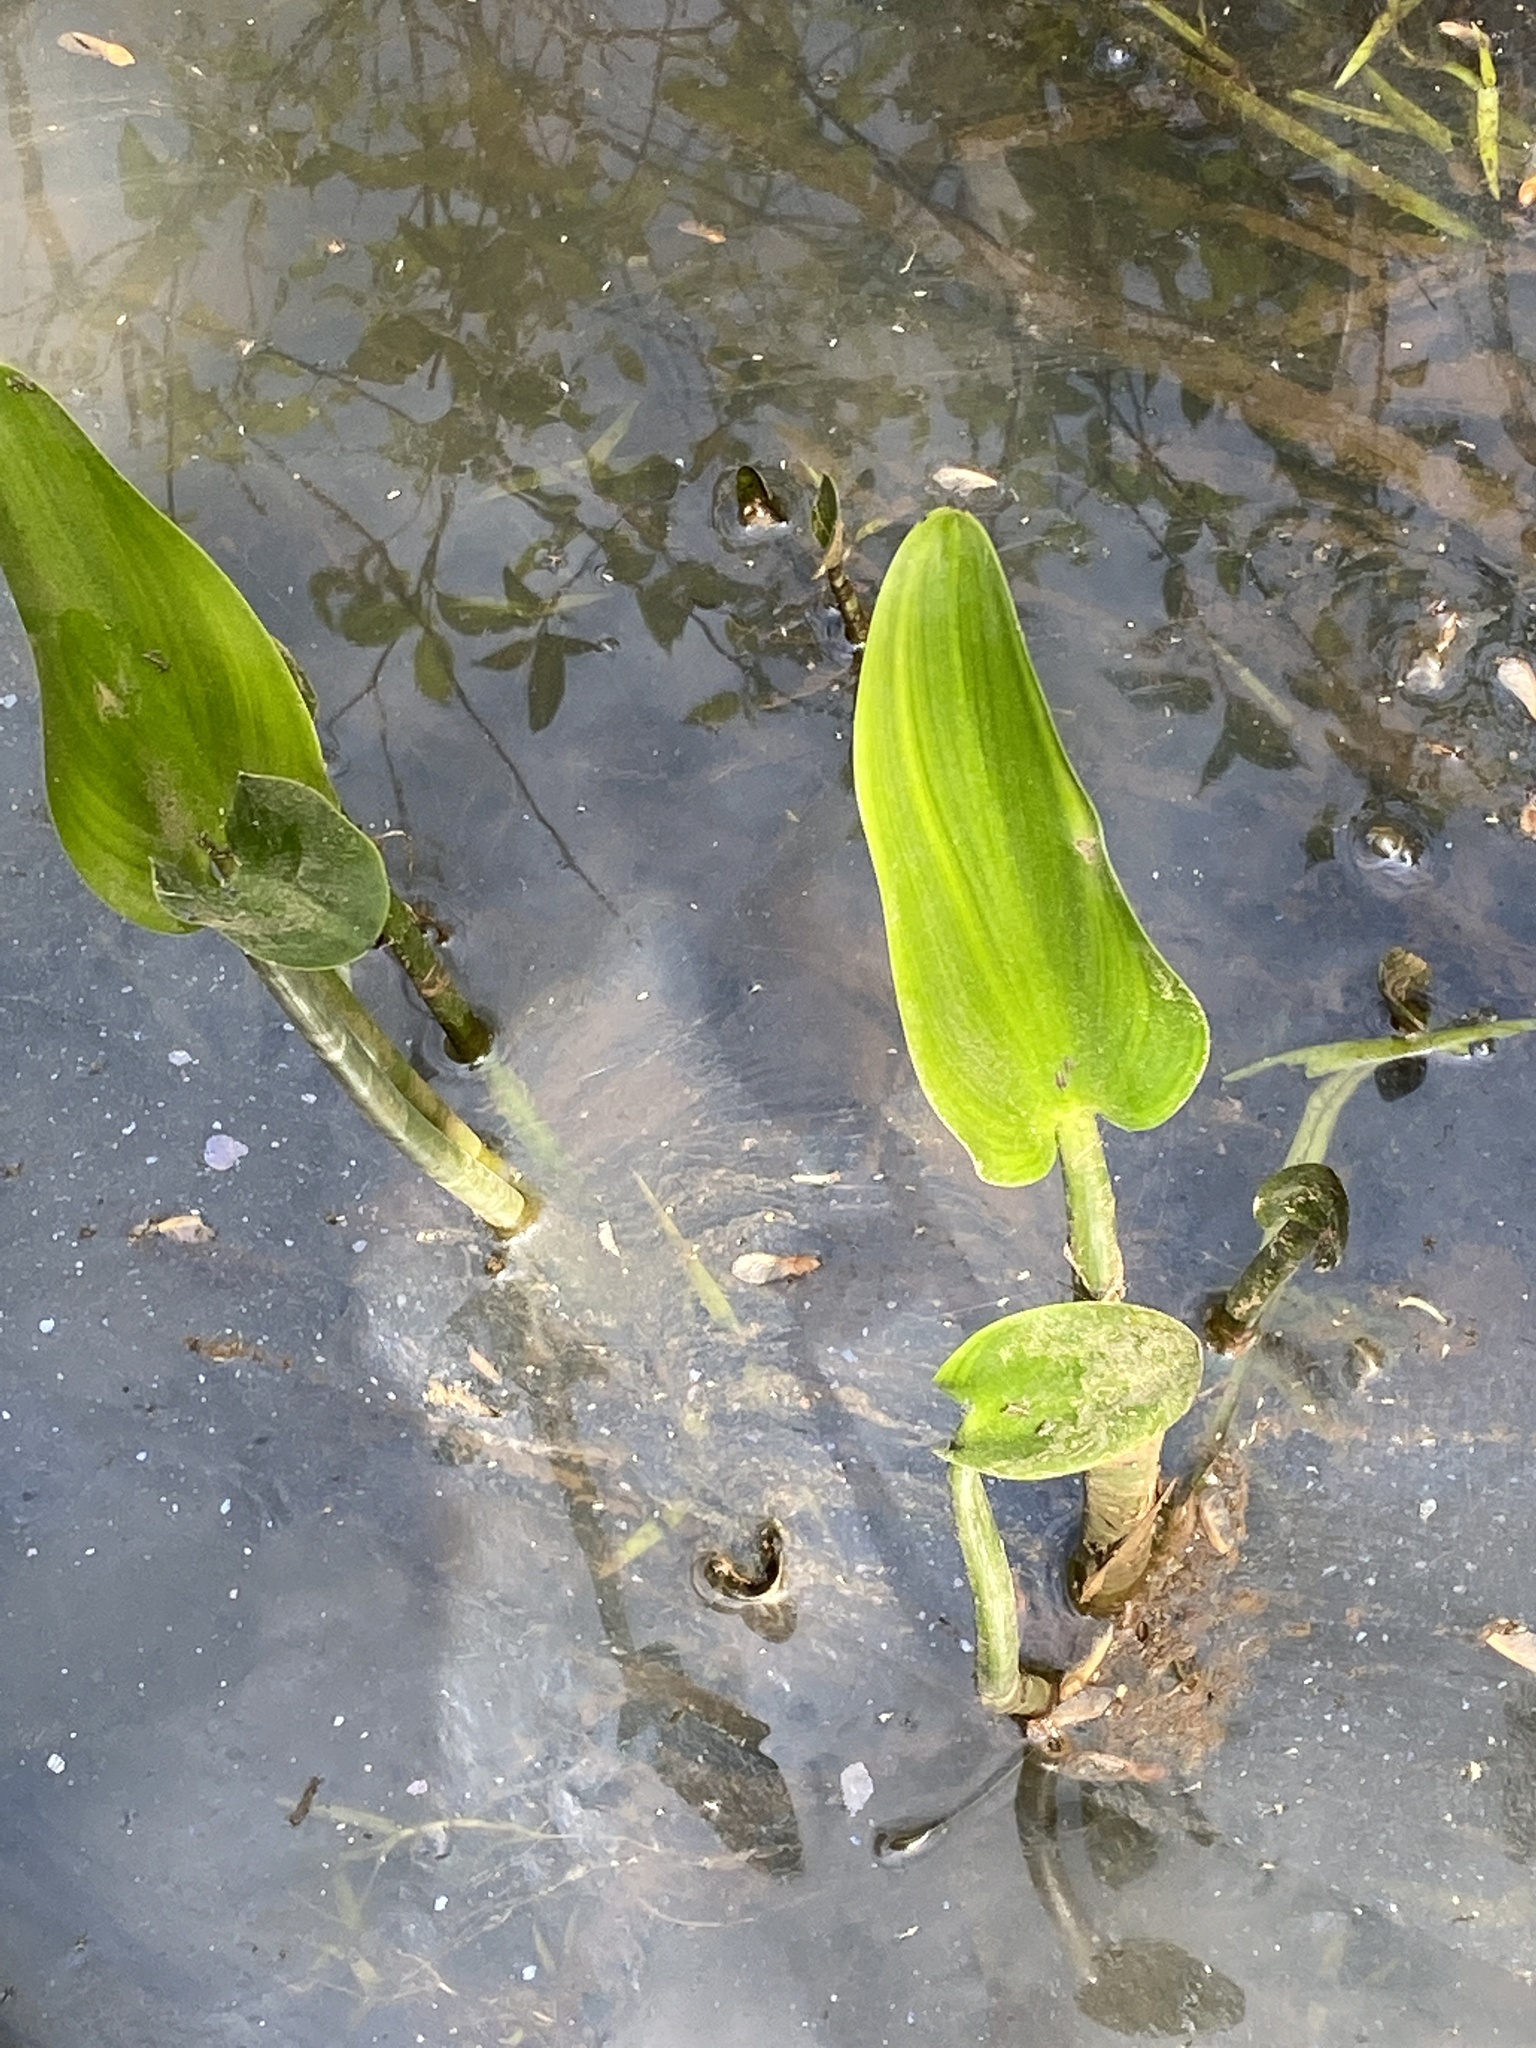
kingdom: Plantae
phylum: Tracheophyta
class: Liliopsida
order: Commelinales
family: Pontederiaceae
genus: Pontederia
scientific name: Pontederia cordata
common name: Pickerelweed
